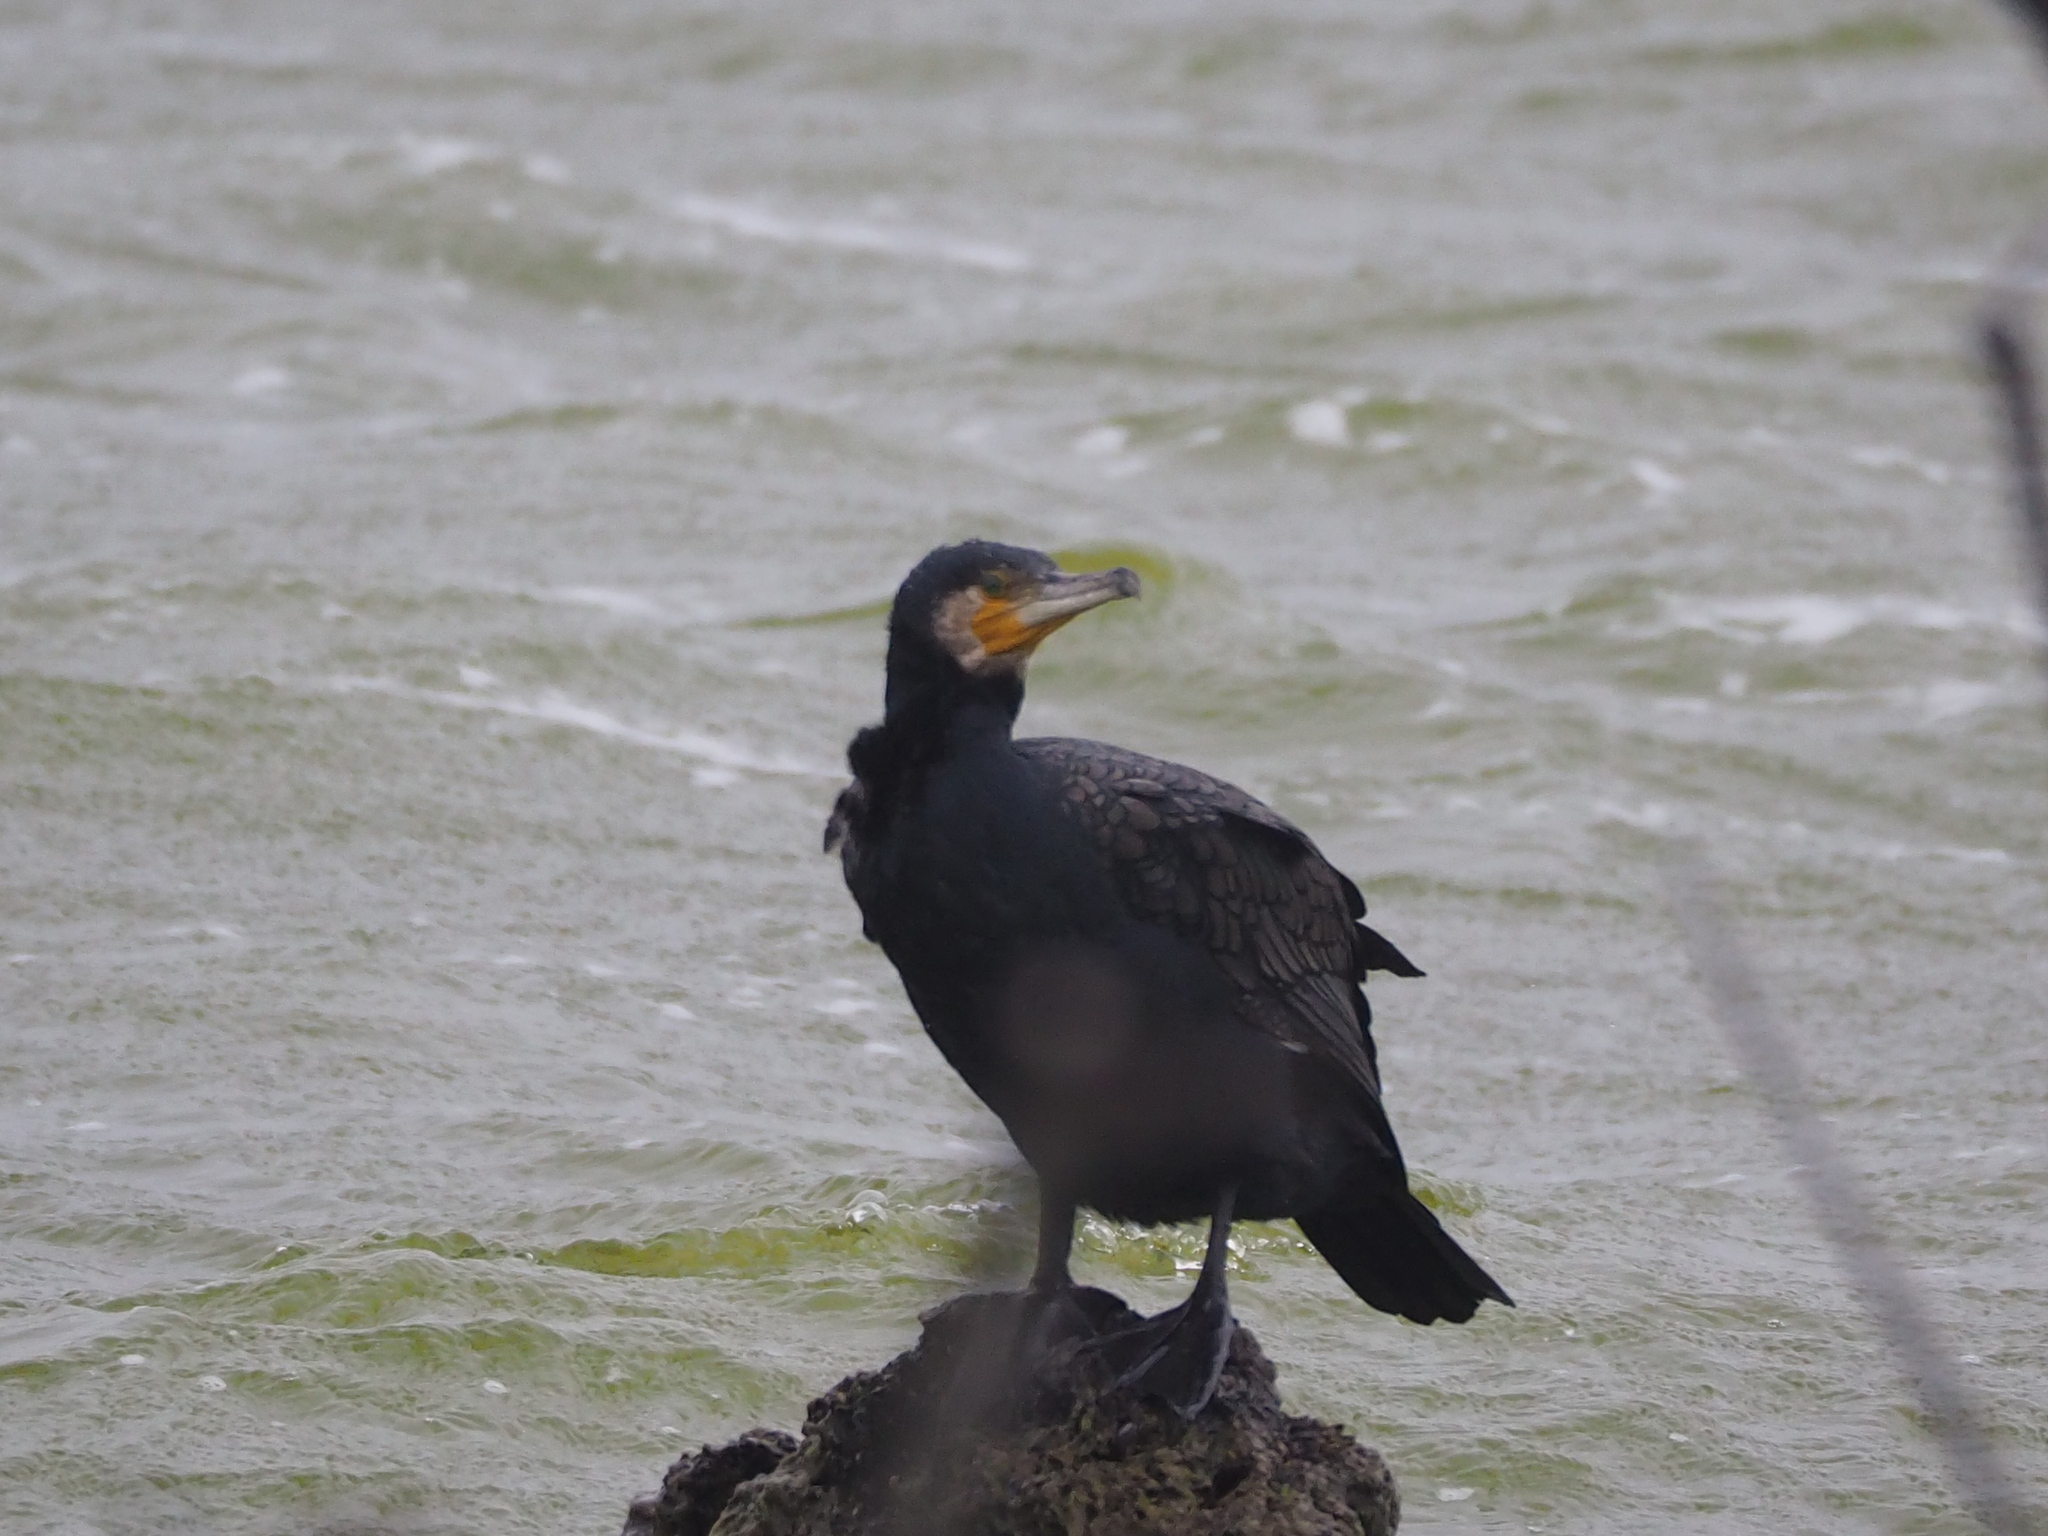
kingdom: Animalia
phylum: Chordata
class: Aves
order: Suliformes
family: Phalacrocoracidae
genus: Phalacrocorax
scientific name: Phalacrocorax carbo
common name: Great cormorant
